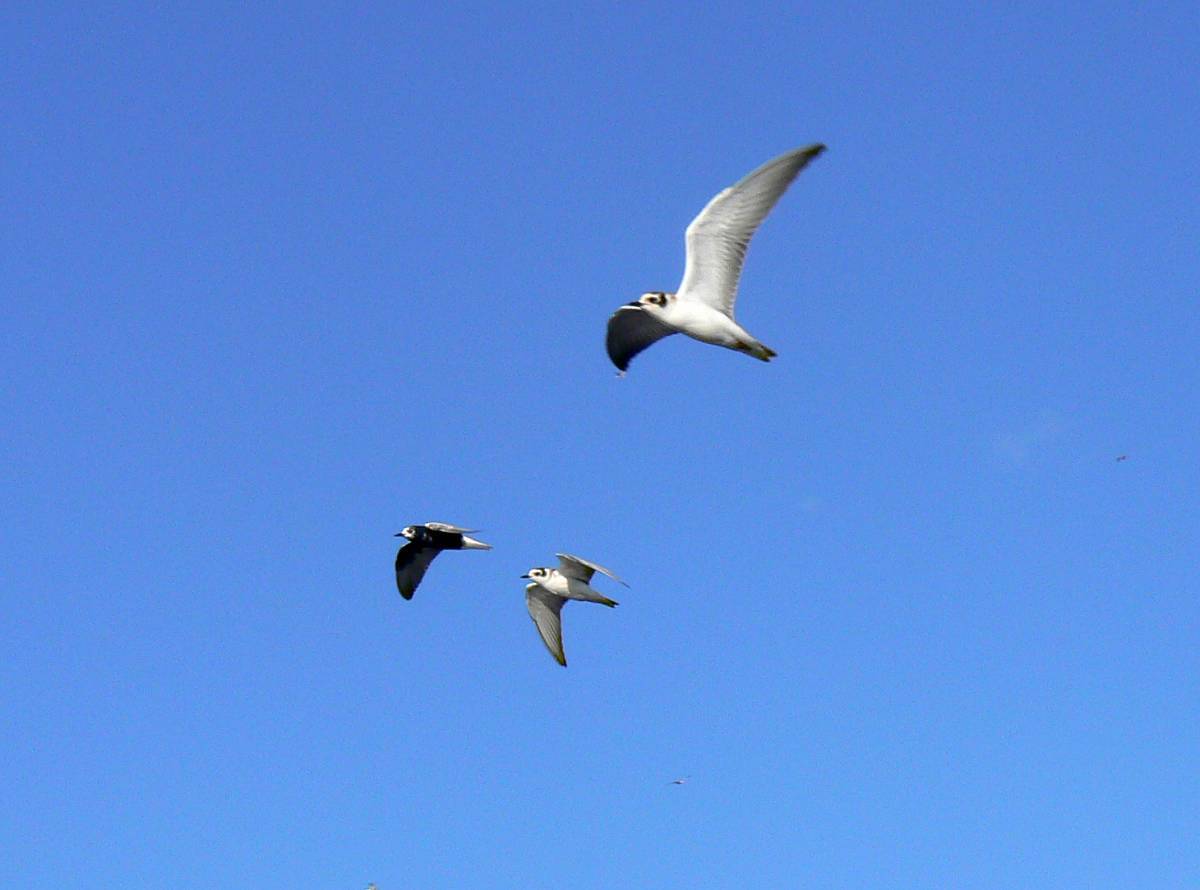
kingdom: Animalia
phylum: Chordata
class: Aves
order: Charadriiformes
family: Laridae
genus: Chlidonias
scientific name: Chlidonias leucopterus
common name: White-winged tern
